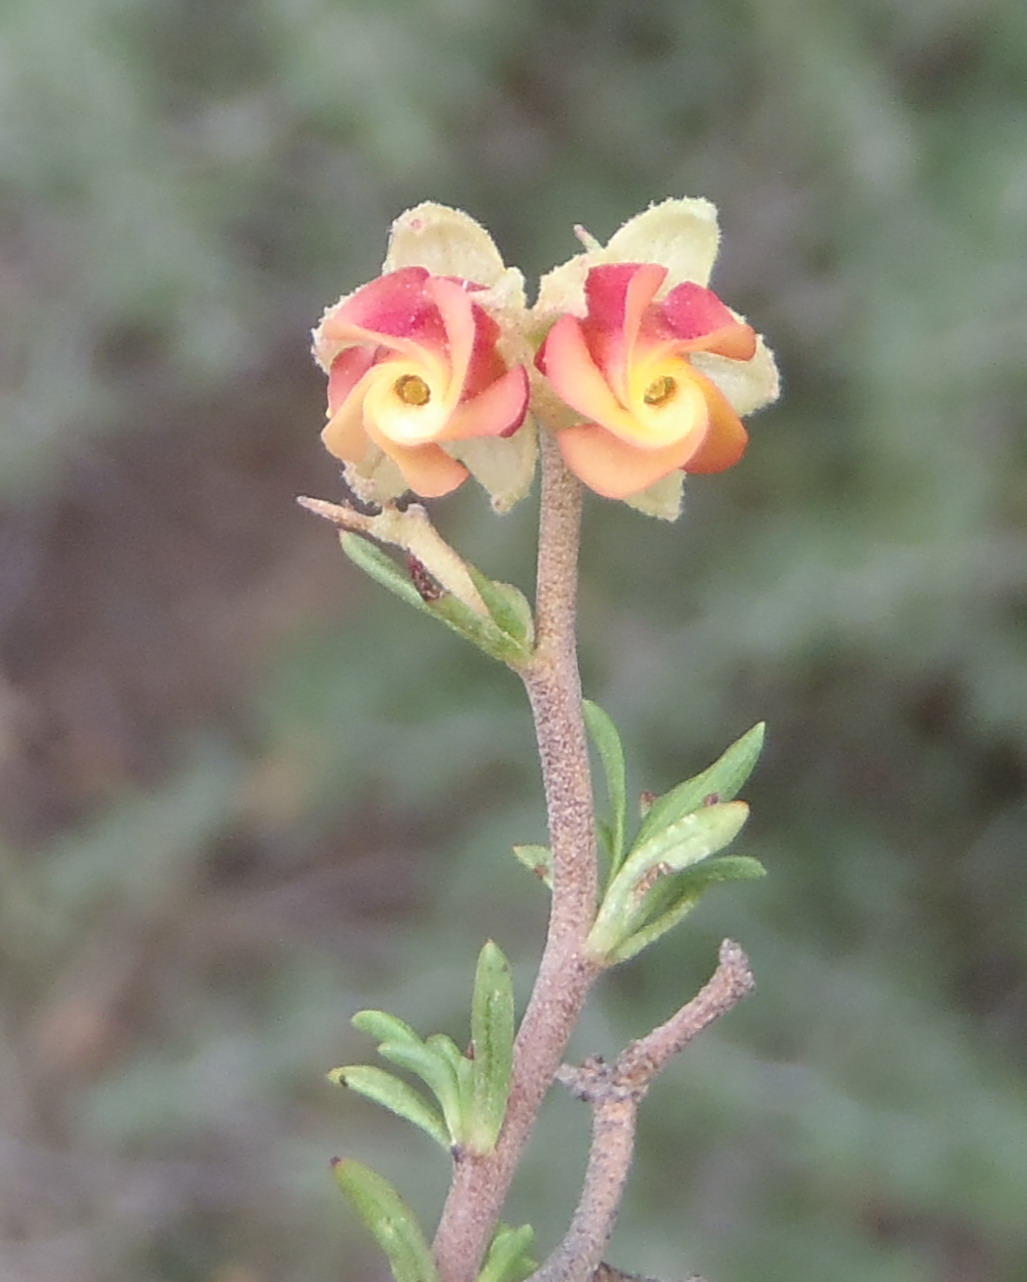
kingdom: Plantae
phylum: Tracheophyta
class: Magnoliopsida
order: Malvales
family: Malvaceae
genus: Hermannia
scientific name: Hermannia filifolia
